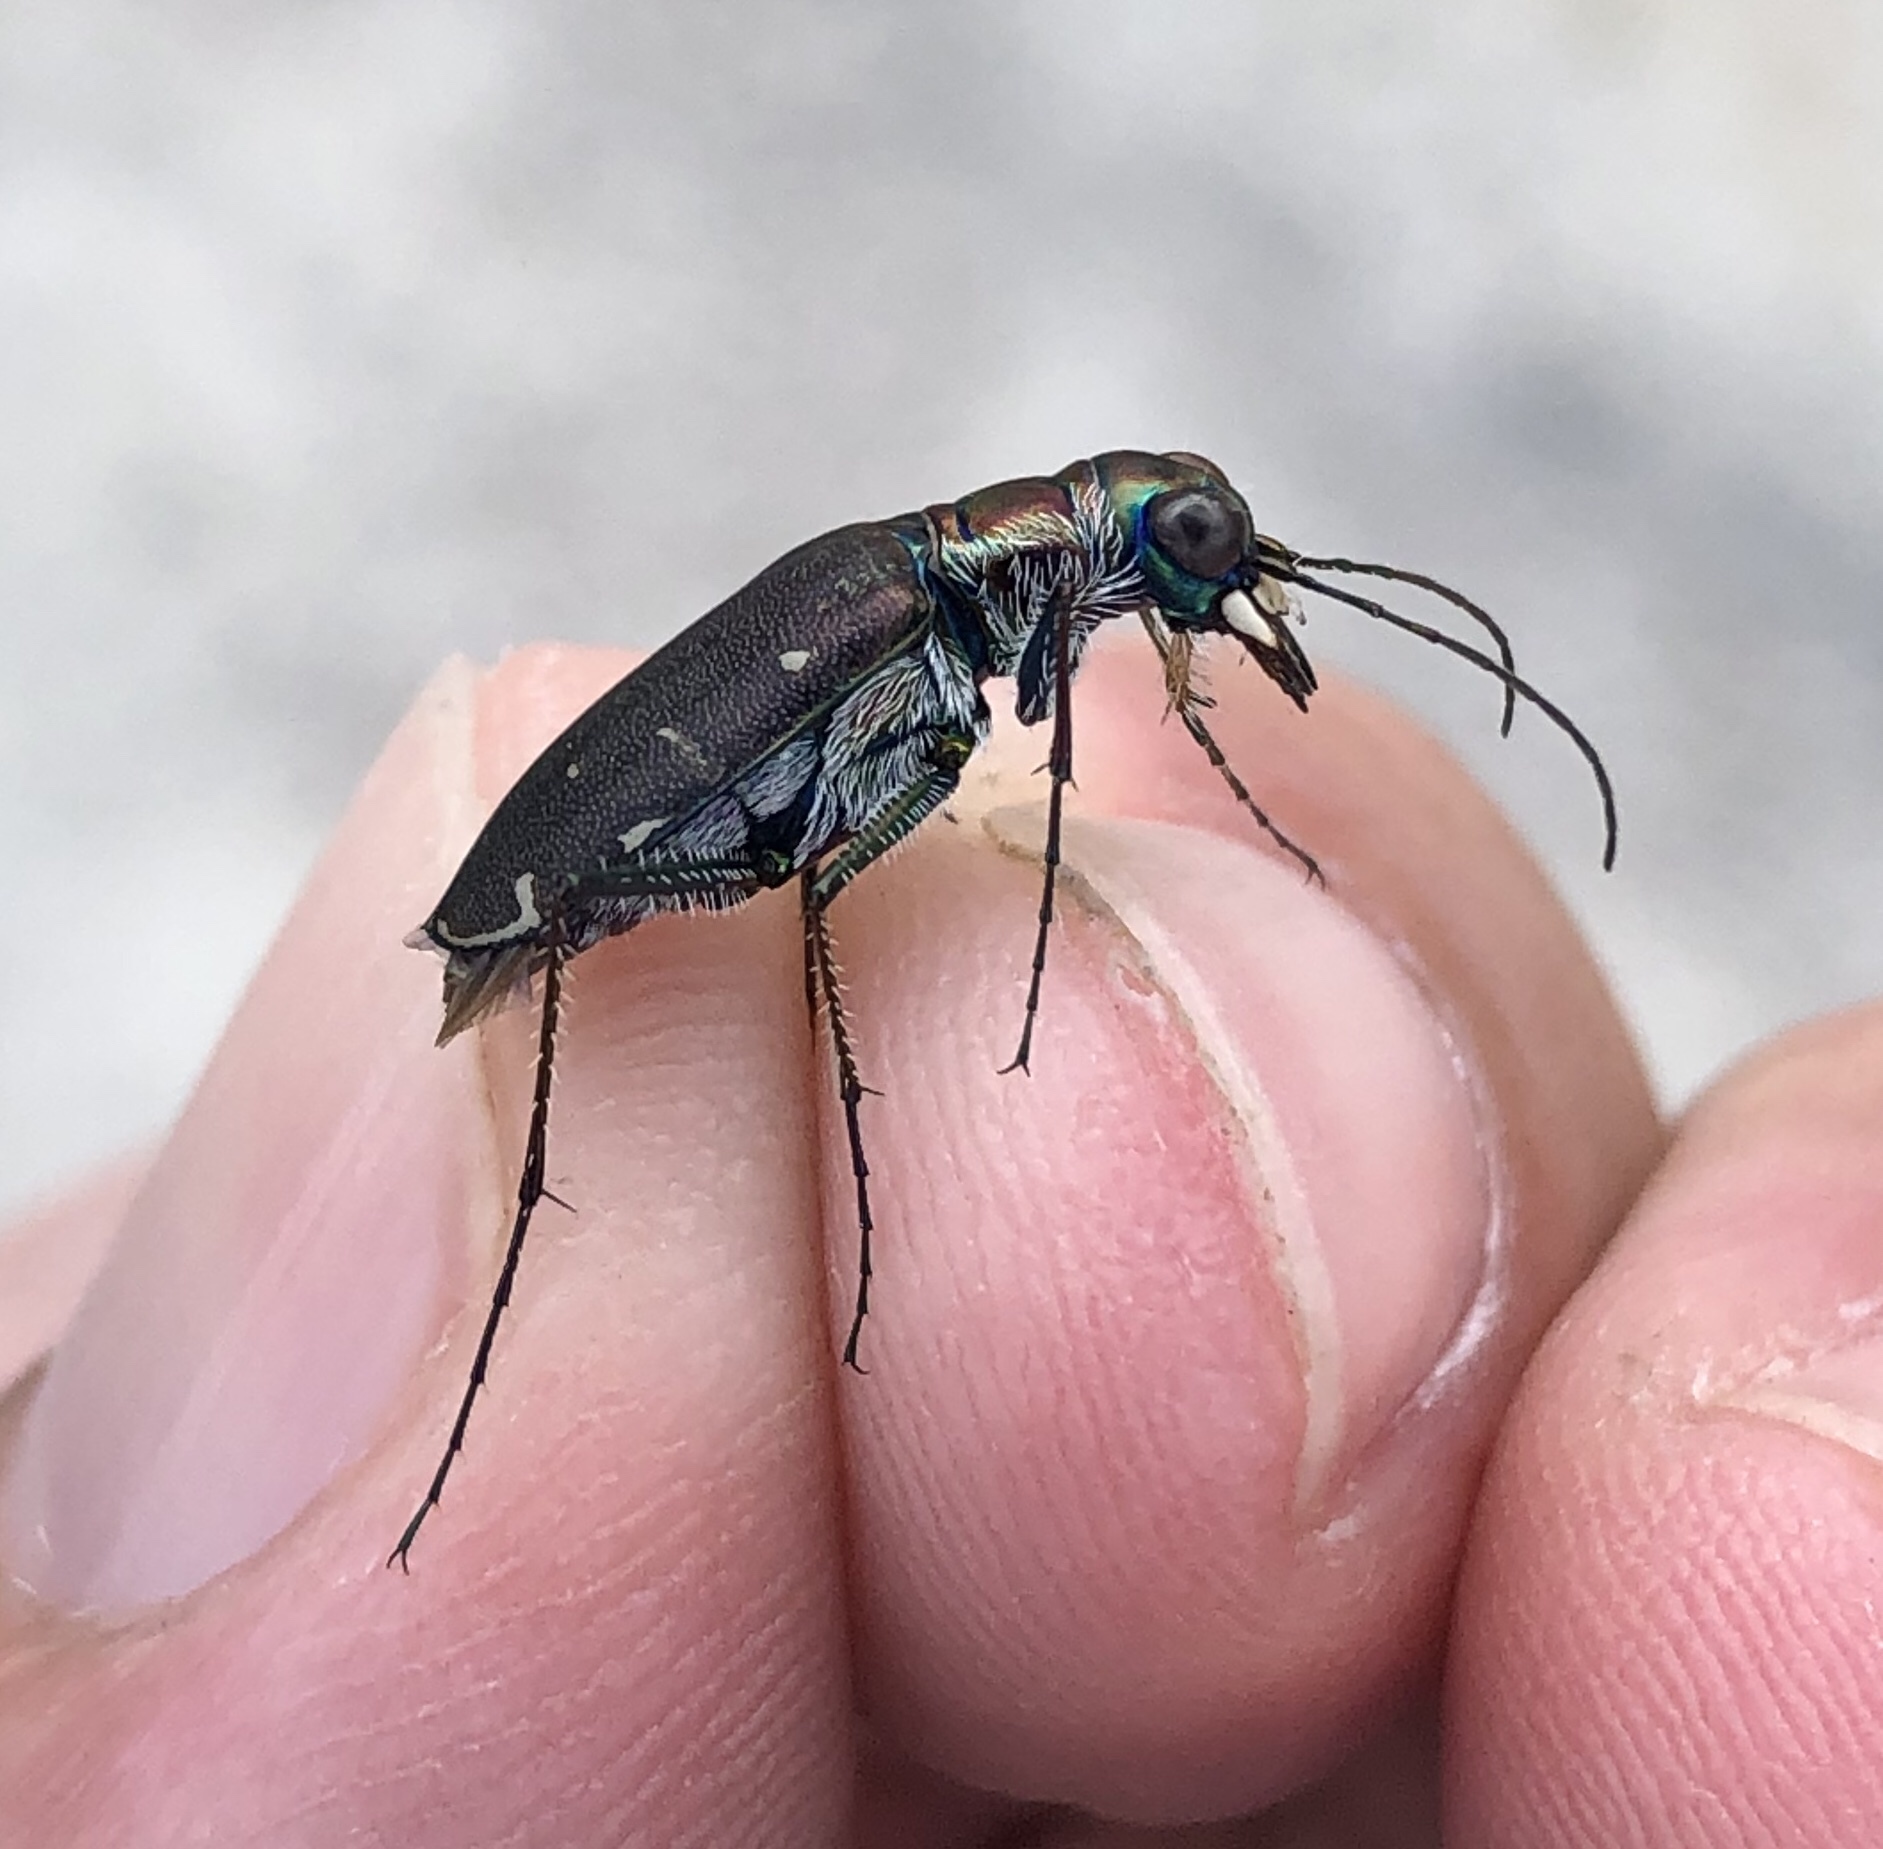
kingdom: Animalia
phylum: Arthropoda
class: Insecta
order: Coleoptera
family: Carabidae
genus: Cicindela
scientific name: Cicindela punctulata
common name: Punctured tiger beetle
